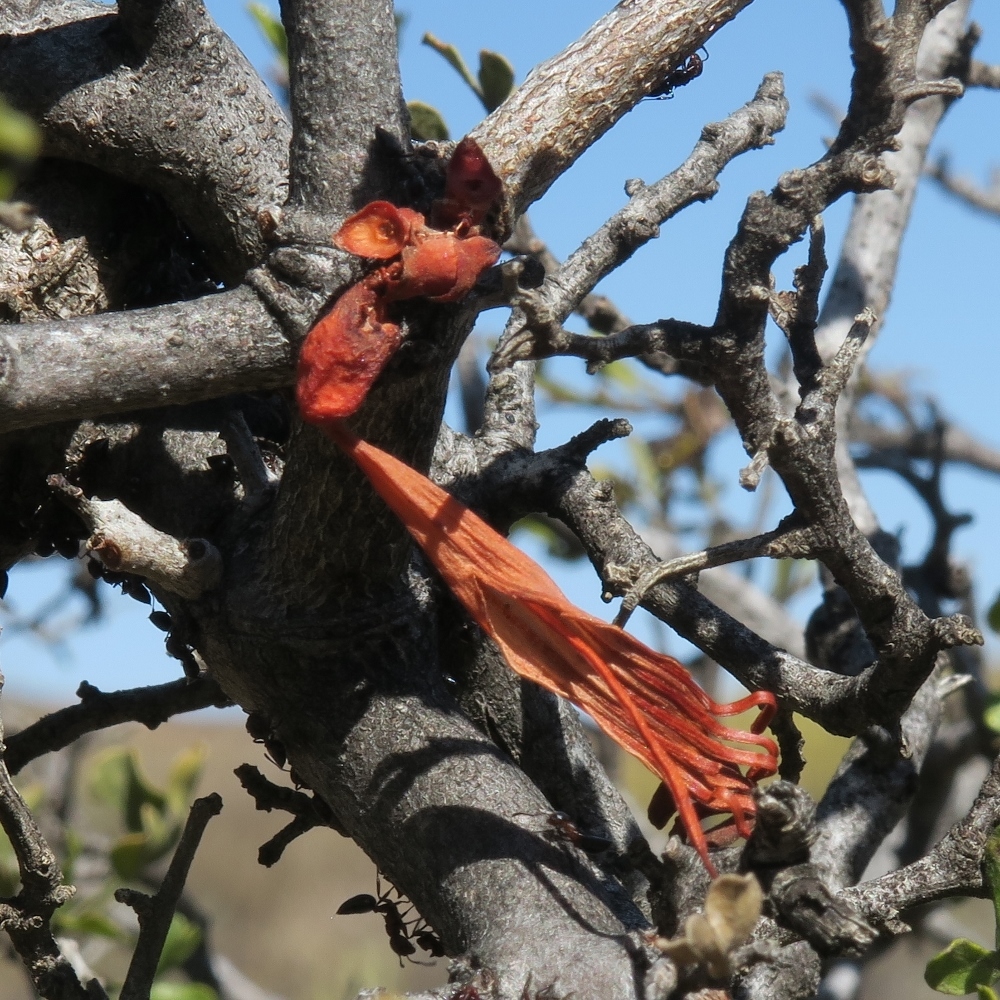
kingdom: Plantae
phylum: Tracheophyta
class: Magnoliopsida
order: Santalales
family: Loranthaceae
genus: Tapinanthus
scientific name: Tapinanthus oleifolius
